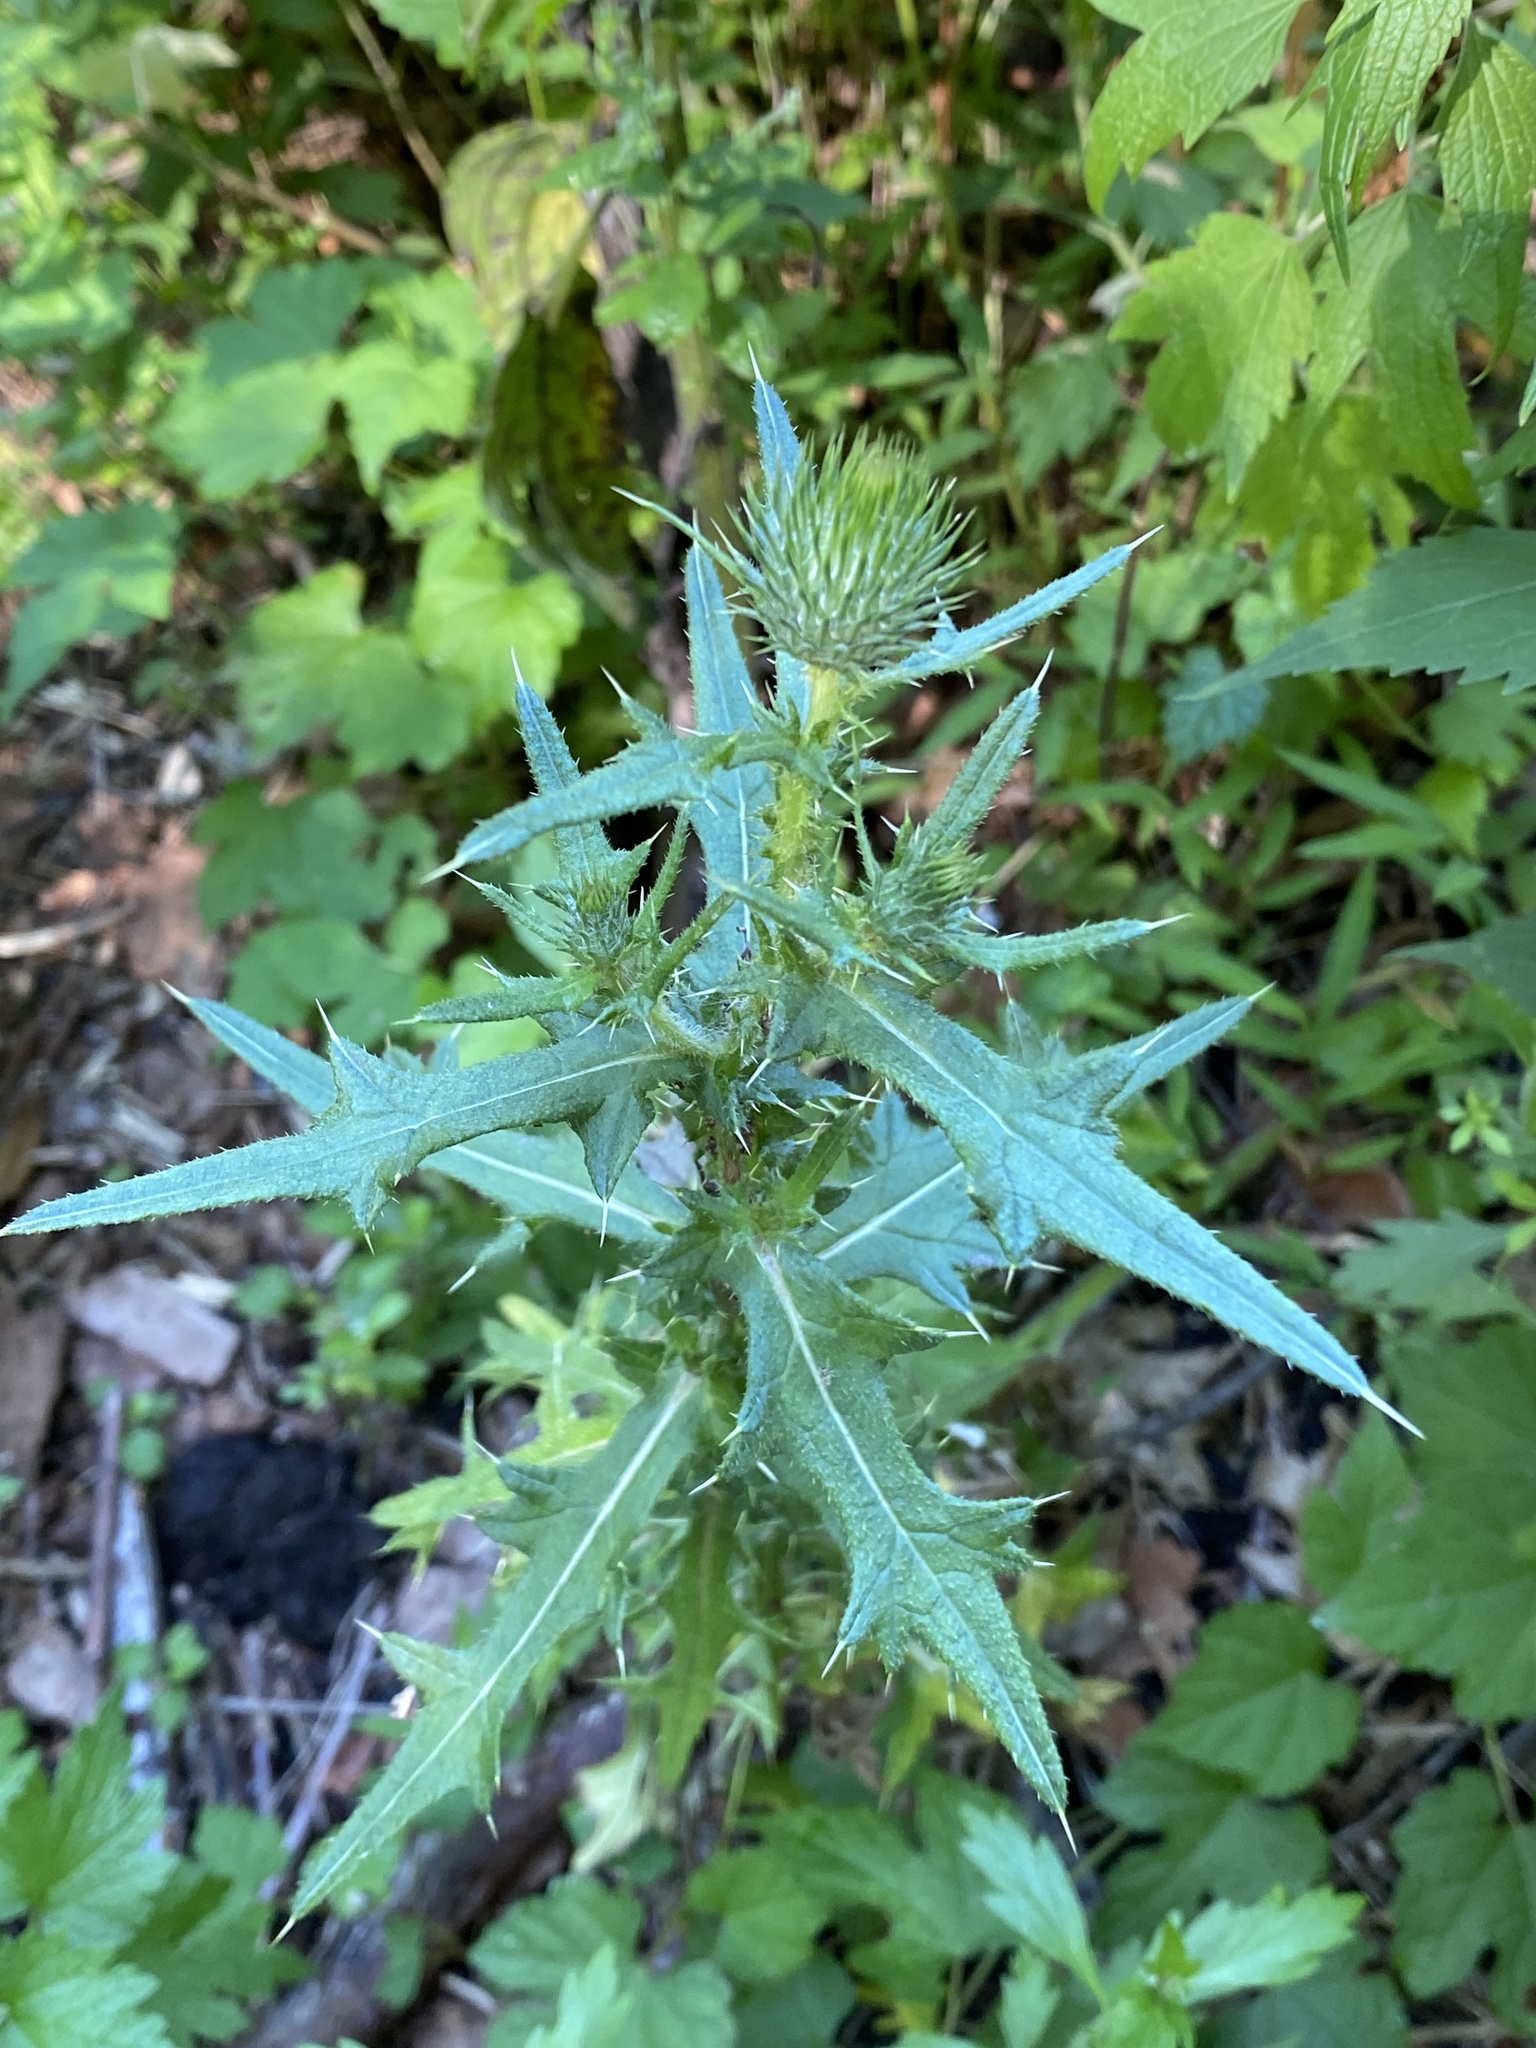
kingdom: Plantae
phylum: Tracheophyta
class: Magnoliopsida
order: Asterales
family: Asteraceae
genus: Cirsium
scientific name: Cirsium vulgare
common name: Bull thistle
